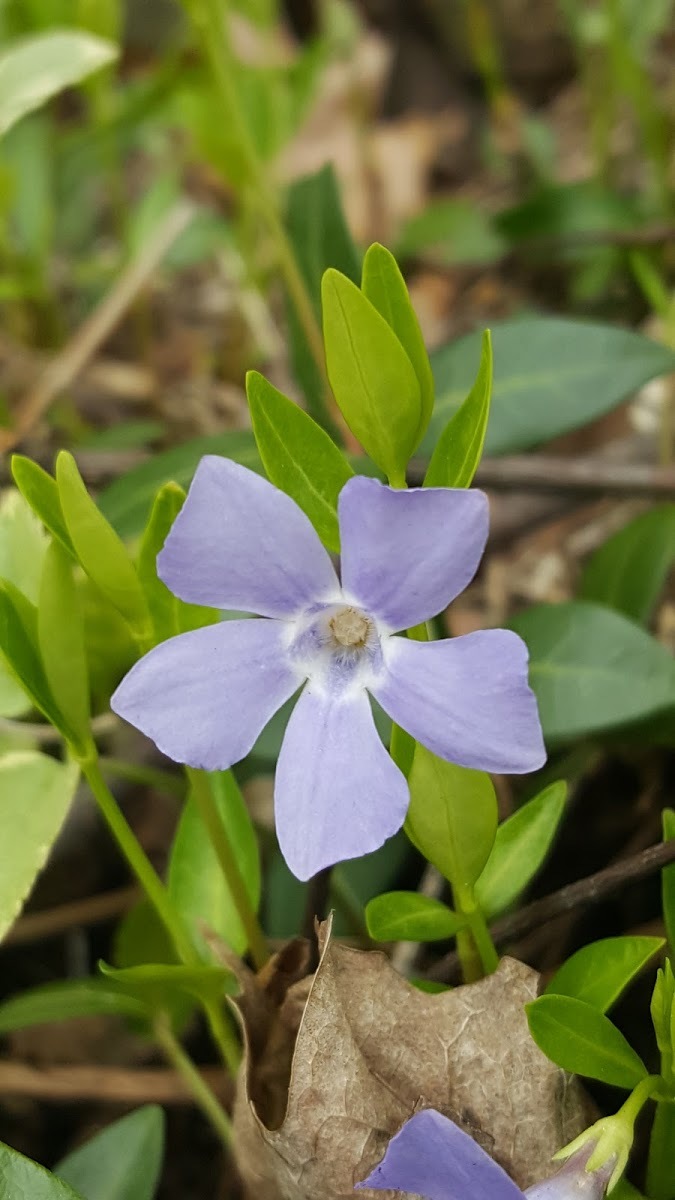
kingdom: Plantae
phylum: Tracheophyta
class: Magnoliopsida
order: Gentianales
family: Apocynaceae
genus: Vinca
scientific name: Vinca minor
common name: Lesser periwinkle
